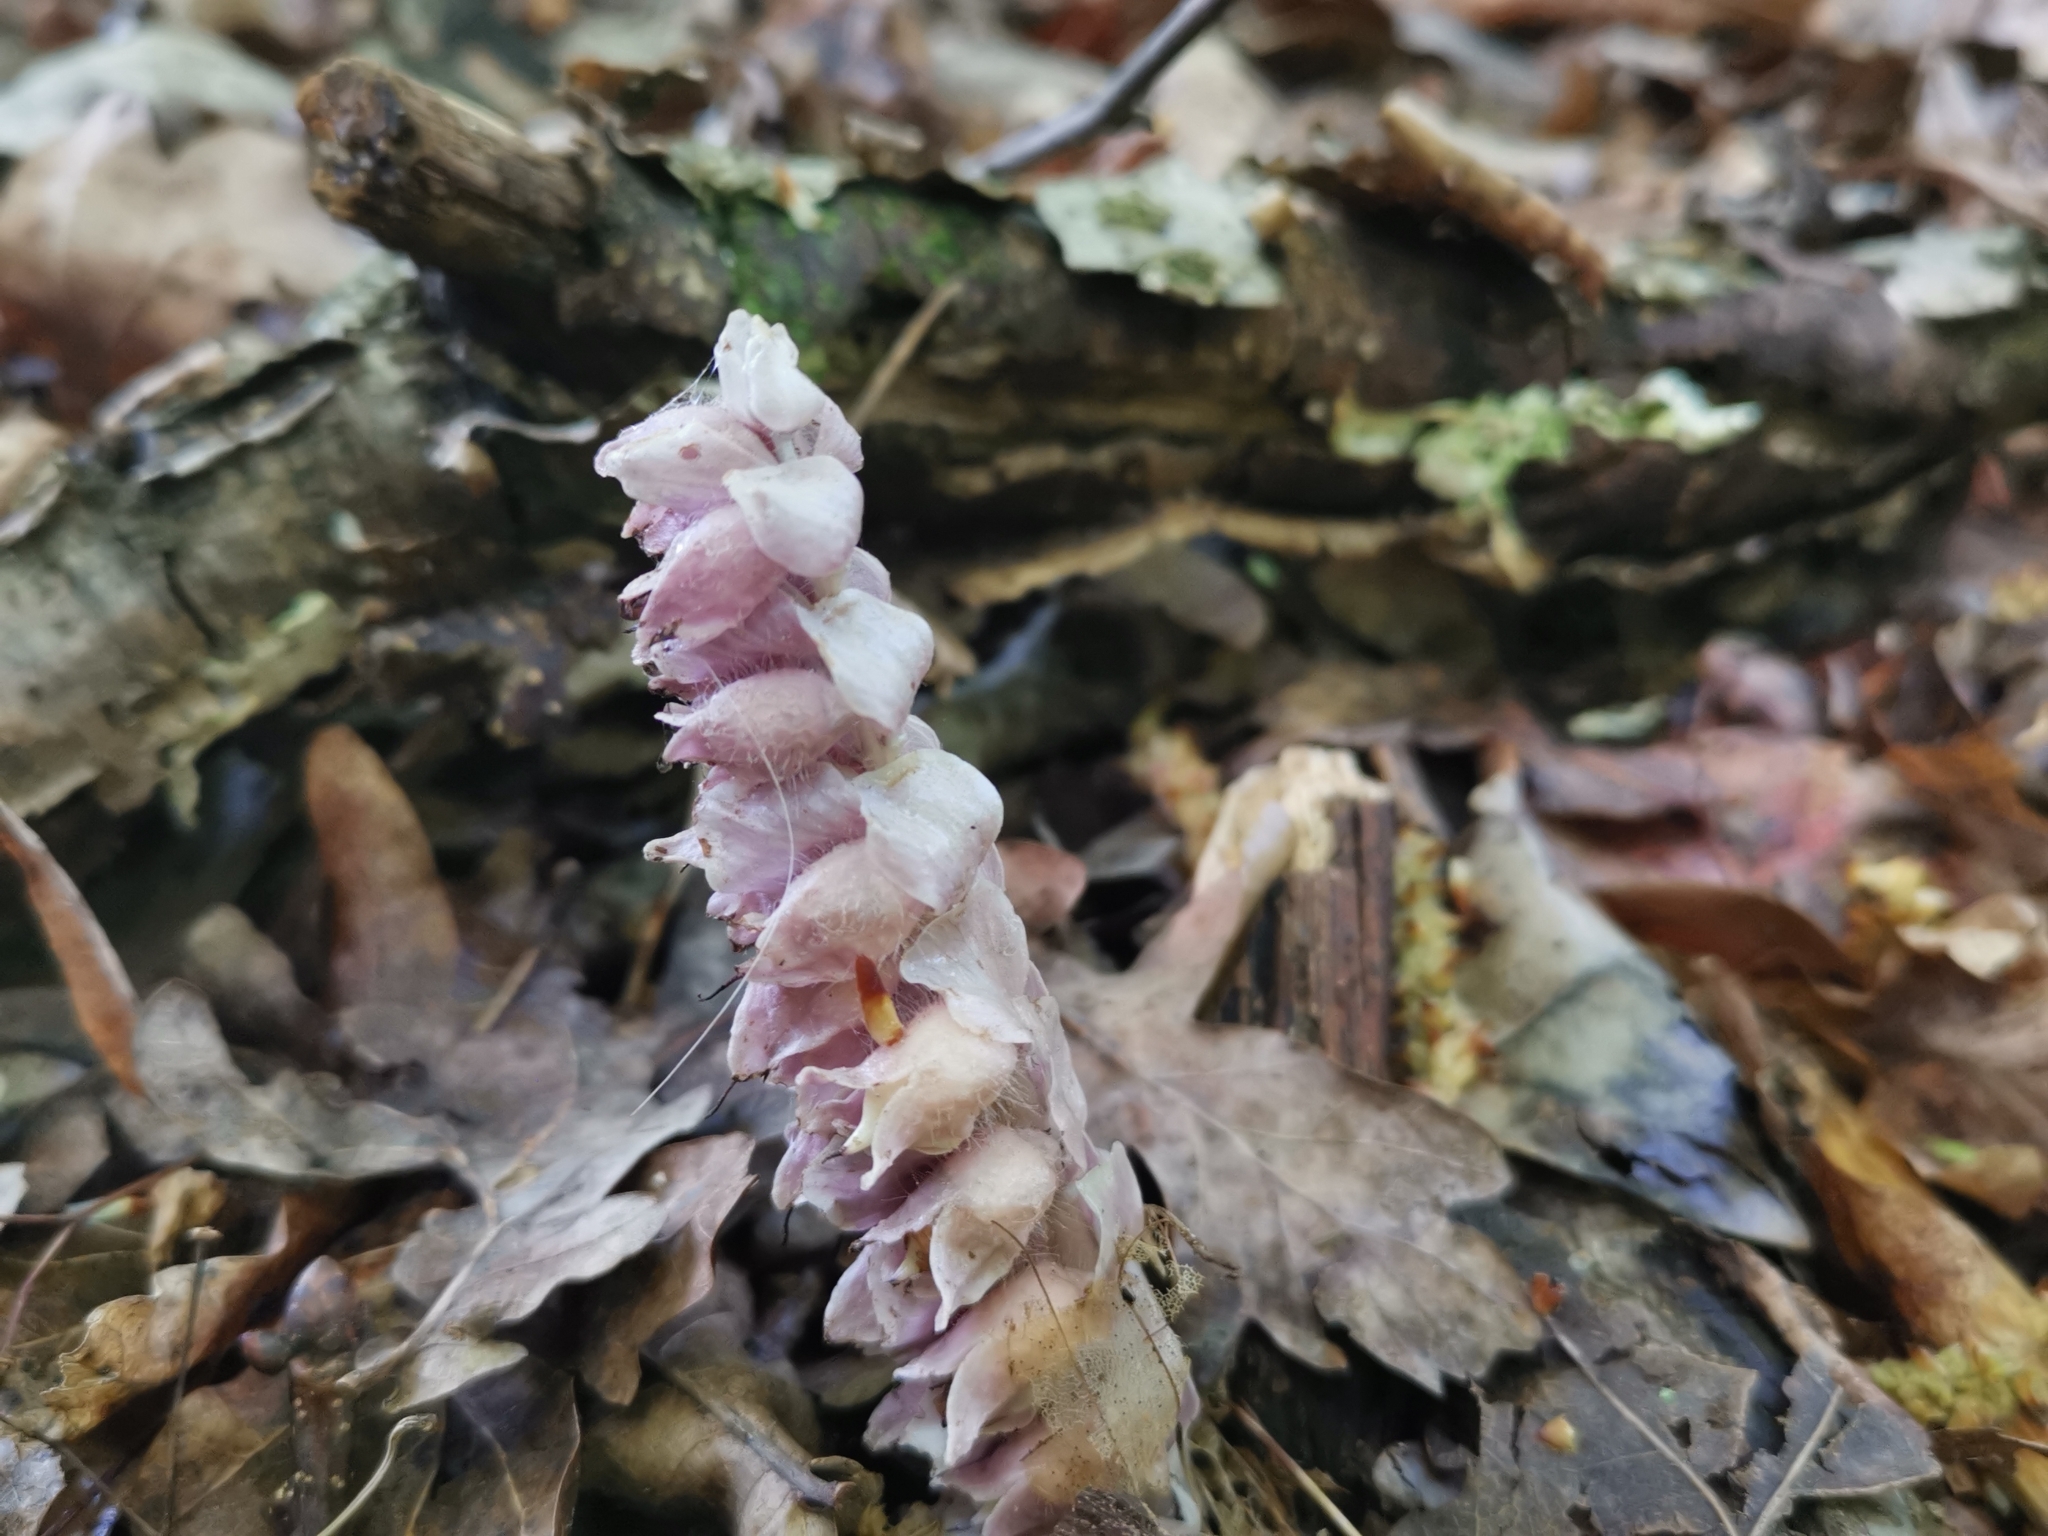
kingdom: Plantae
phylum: Tracheophyta
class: Magnoliopsida
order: Lamiales
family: Orobanchaceae
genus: Lathraea
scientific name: Lathraea squamaria
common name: Toothwort
